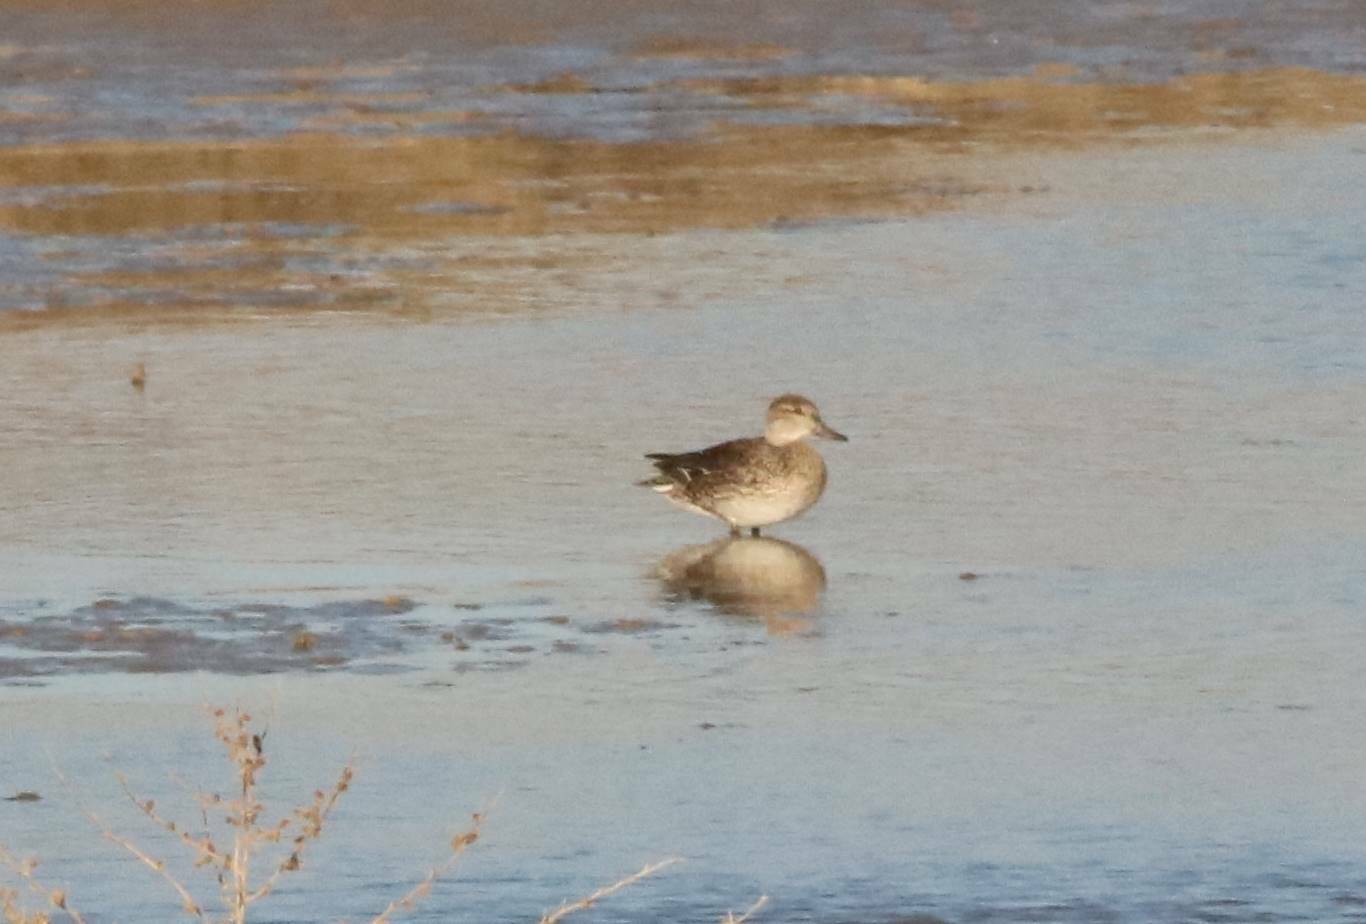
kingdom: Animalia
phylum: Chordata
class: Aves
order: Anseriformes
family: Anatidae
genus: Anas
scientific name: Anas crecca
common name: Eurasian teal
